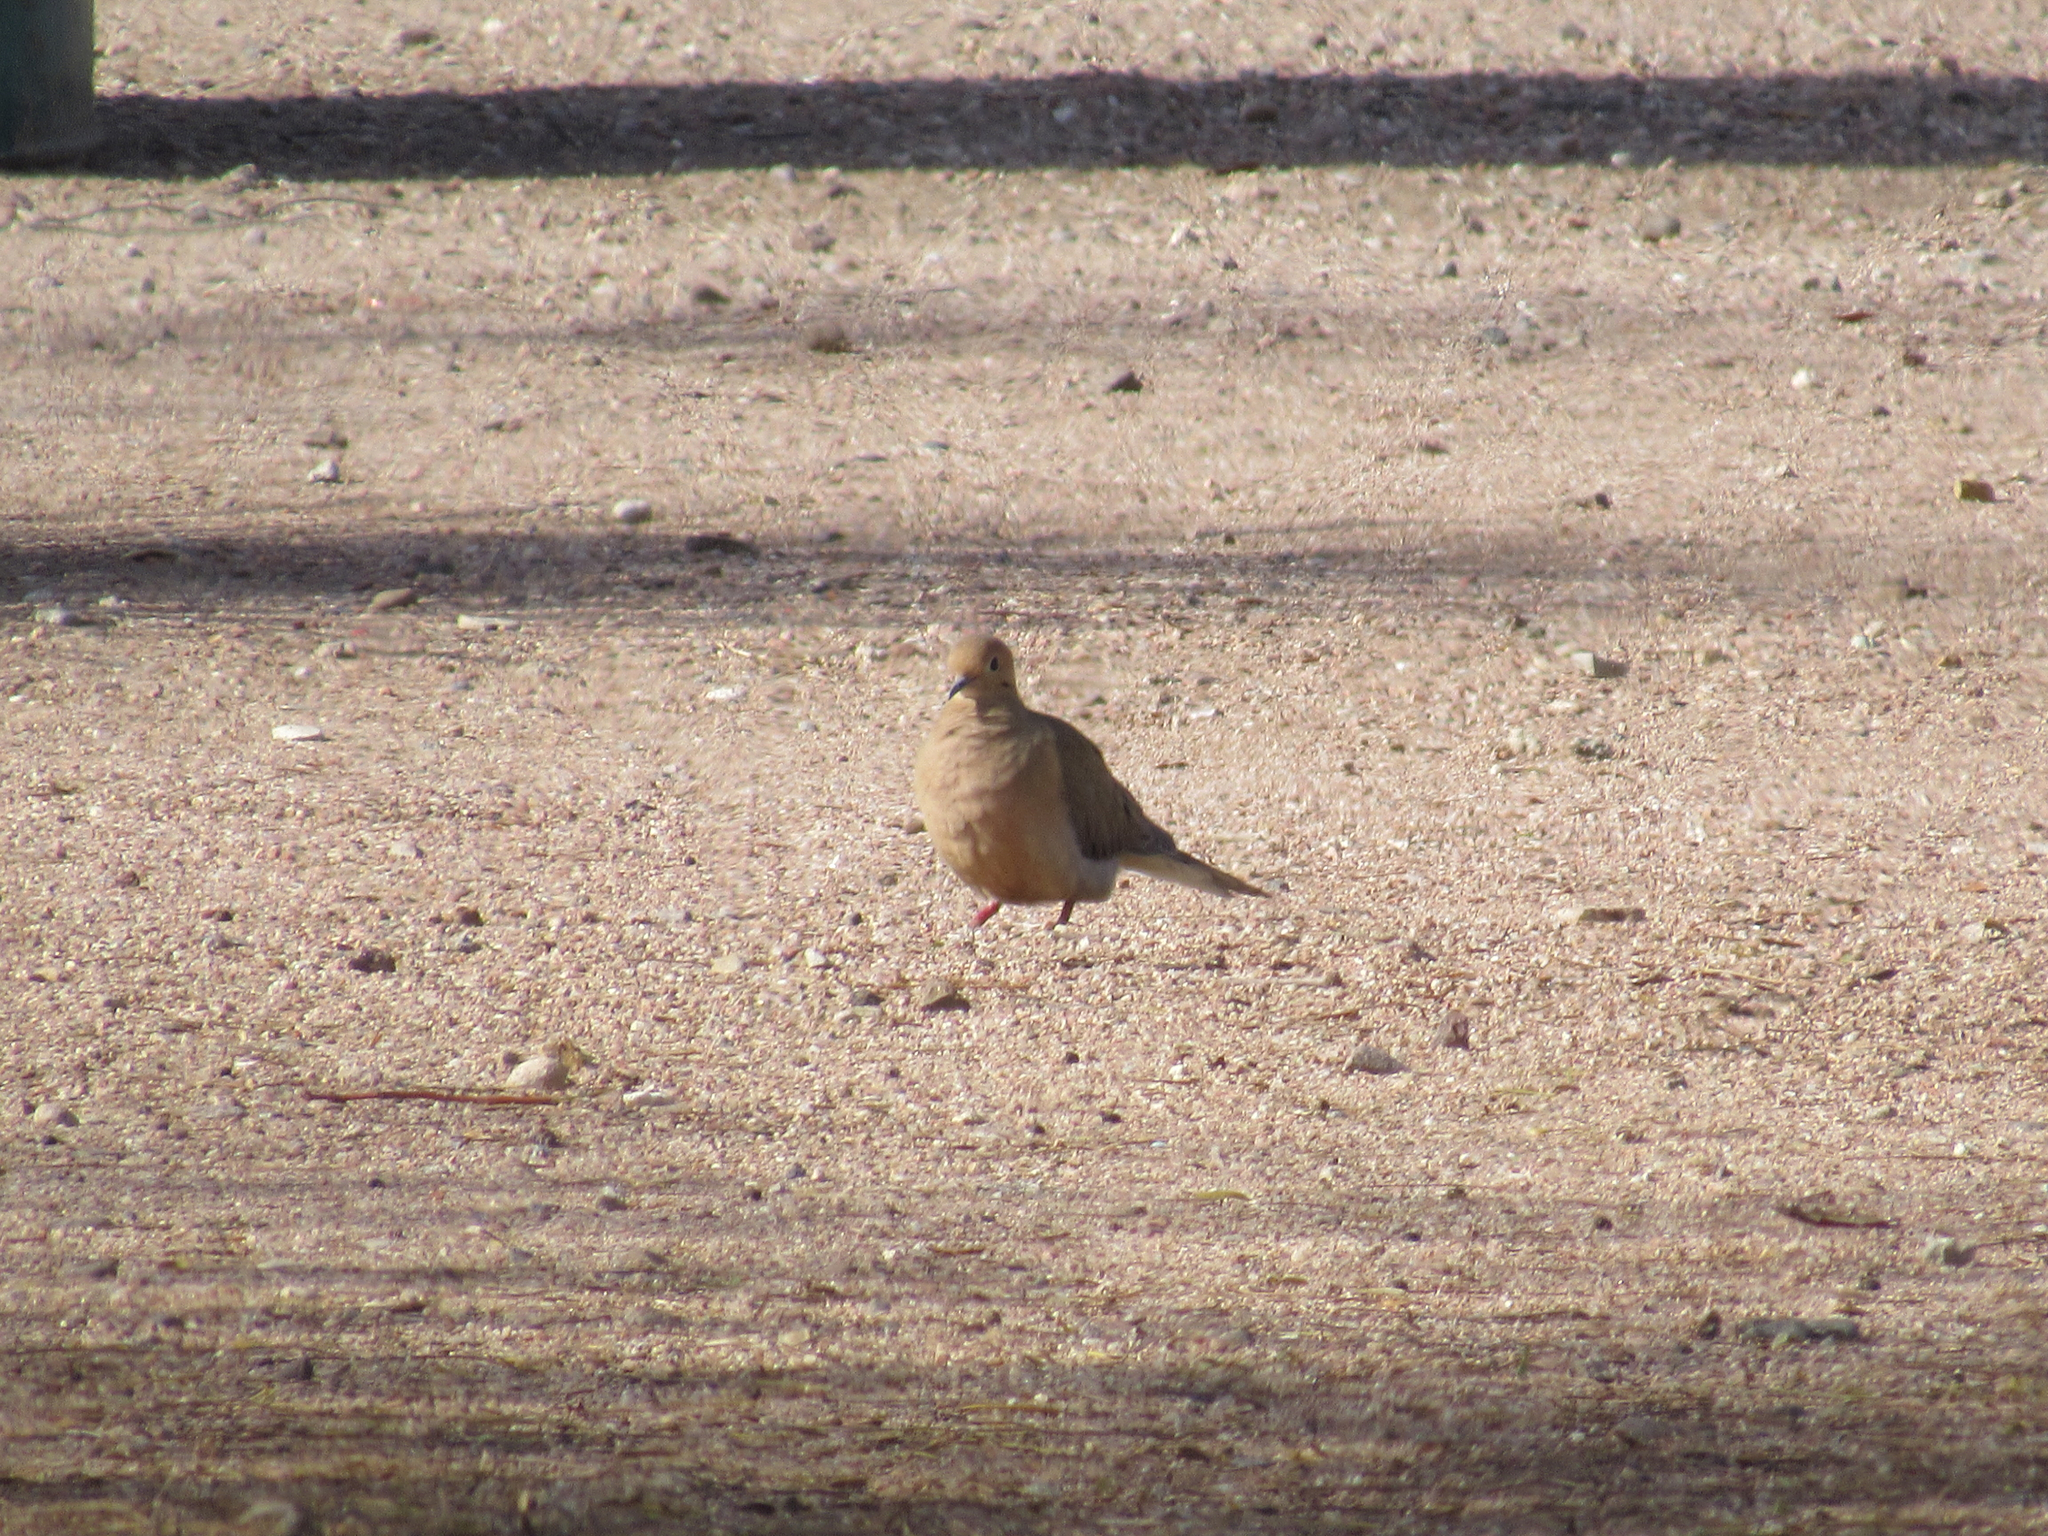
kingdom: Animalia
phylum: Chordata
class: Aves
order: Columbiformes
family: Columbidae
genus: Zenaida
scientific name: Zenaida macroura
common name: Mourning dove
